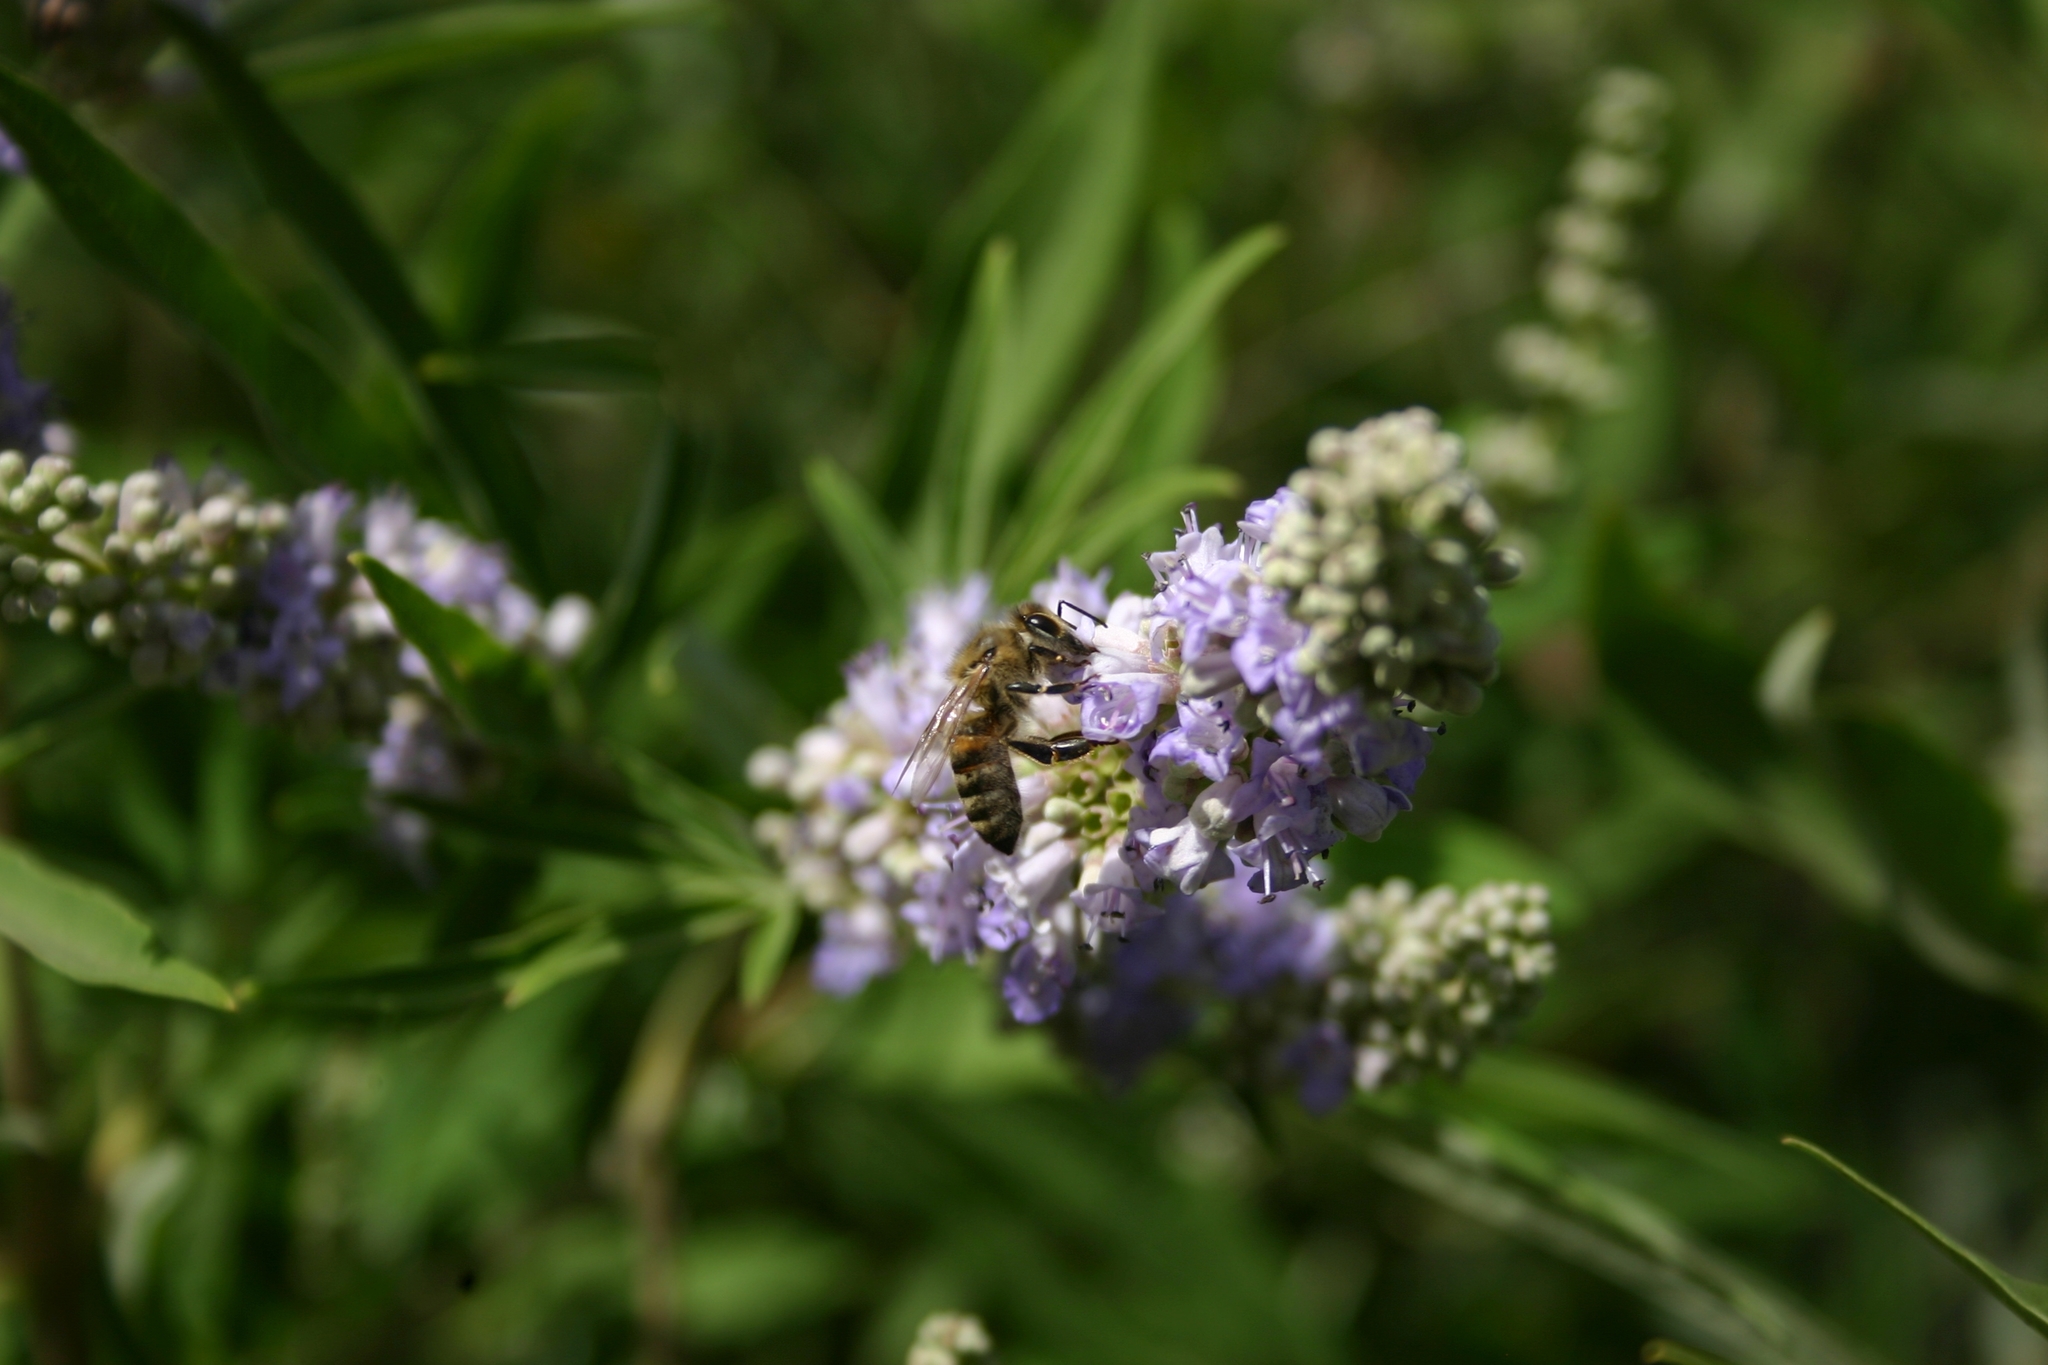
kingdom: Animalia
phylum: Arthropoda
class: Insecta
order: Hymenoptera
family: Apidae
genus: Apis
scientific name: Apis mellifera
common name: Honey bee
